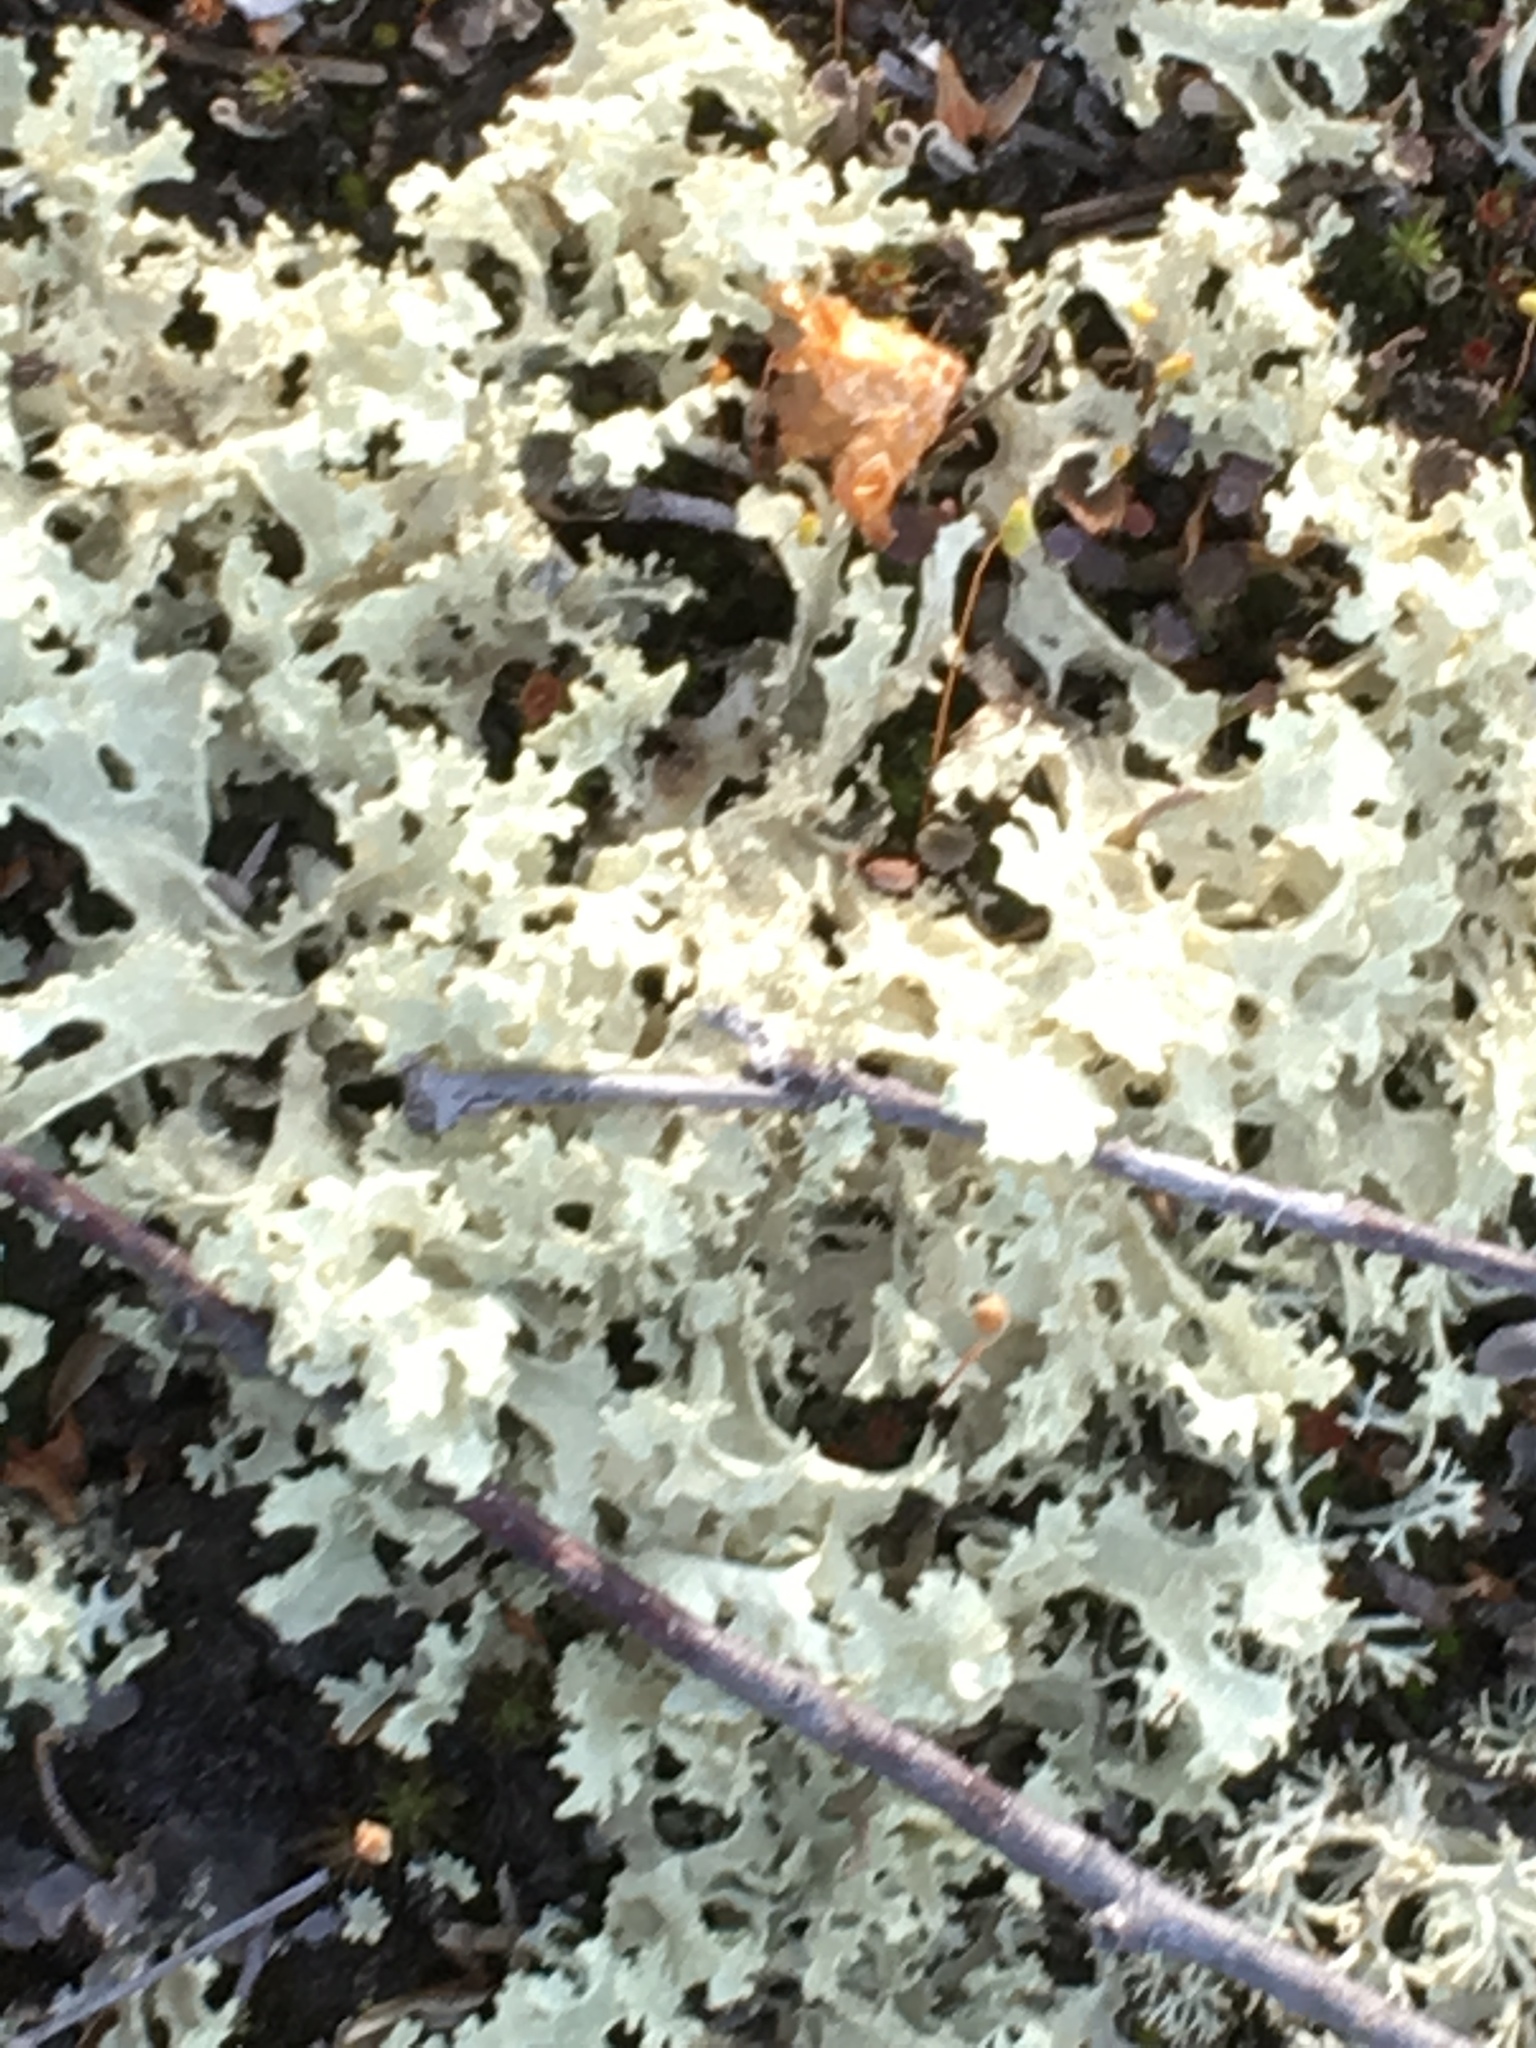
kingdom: Fungi
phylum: Ascomycota
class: Lecanoromycetes
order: Lecanorales
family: Parmeliaceae
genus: Nephromopsis
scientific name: Nephromopsis nivalis
